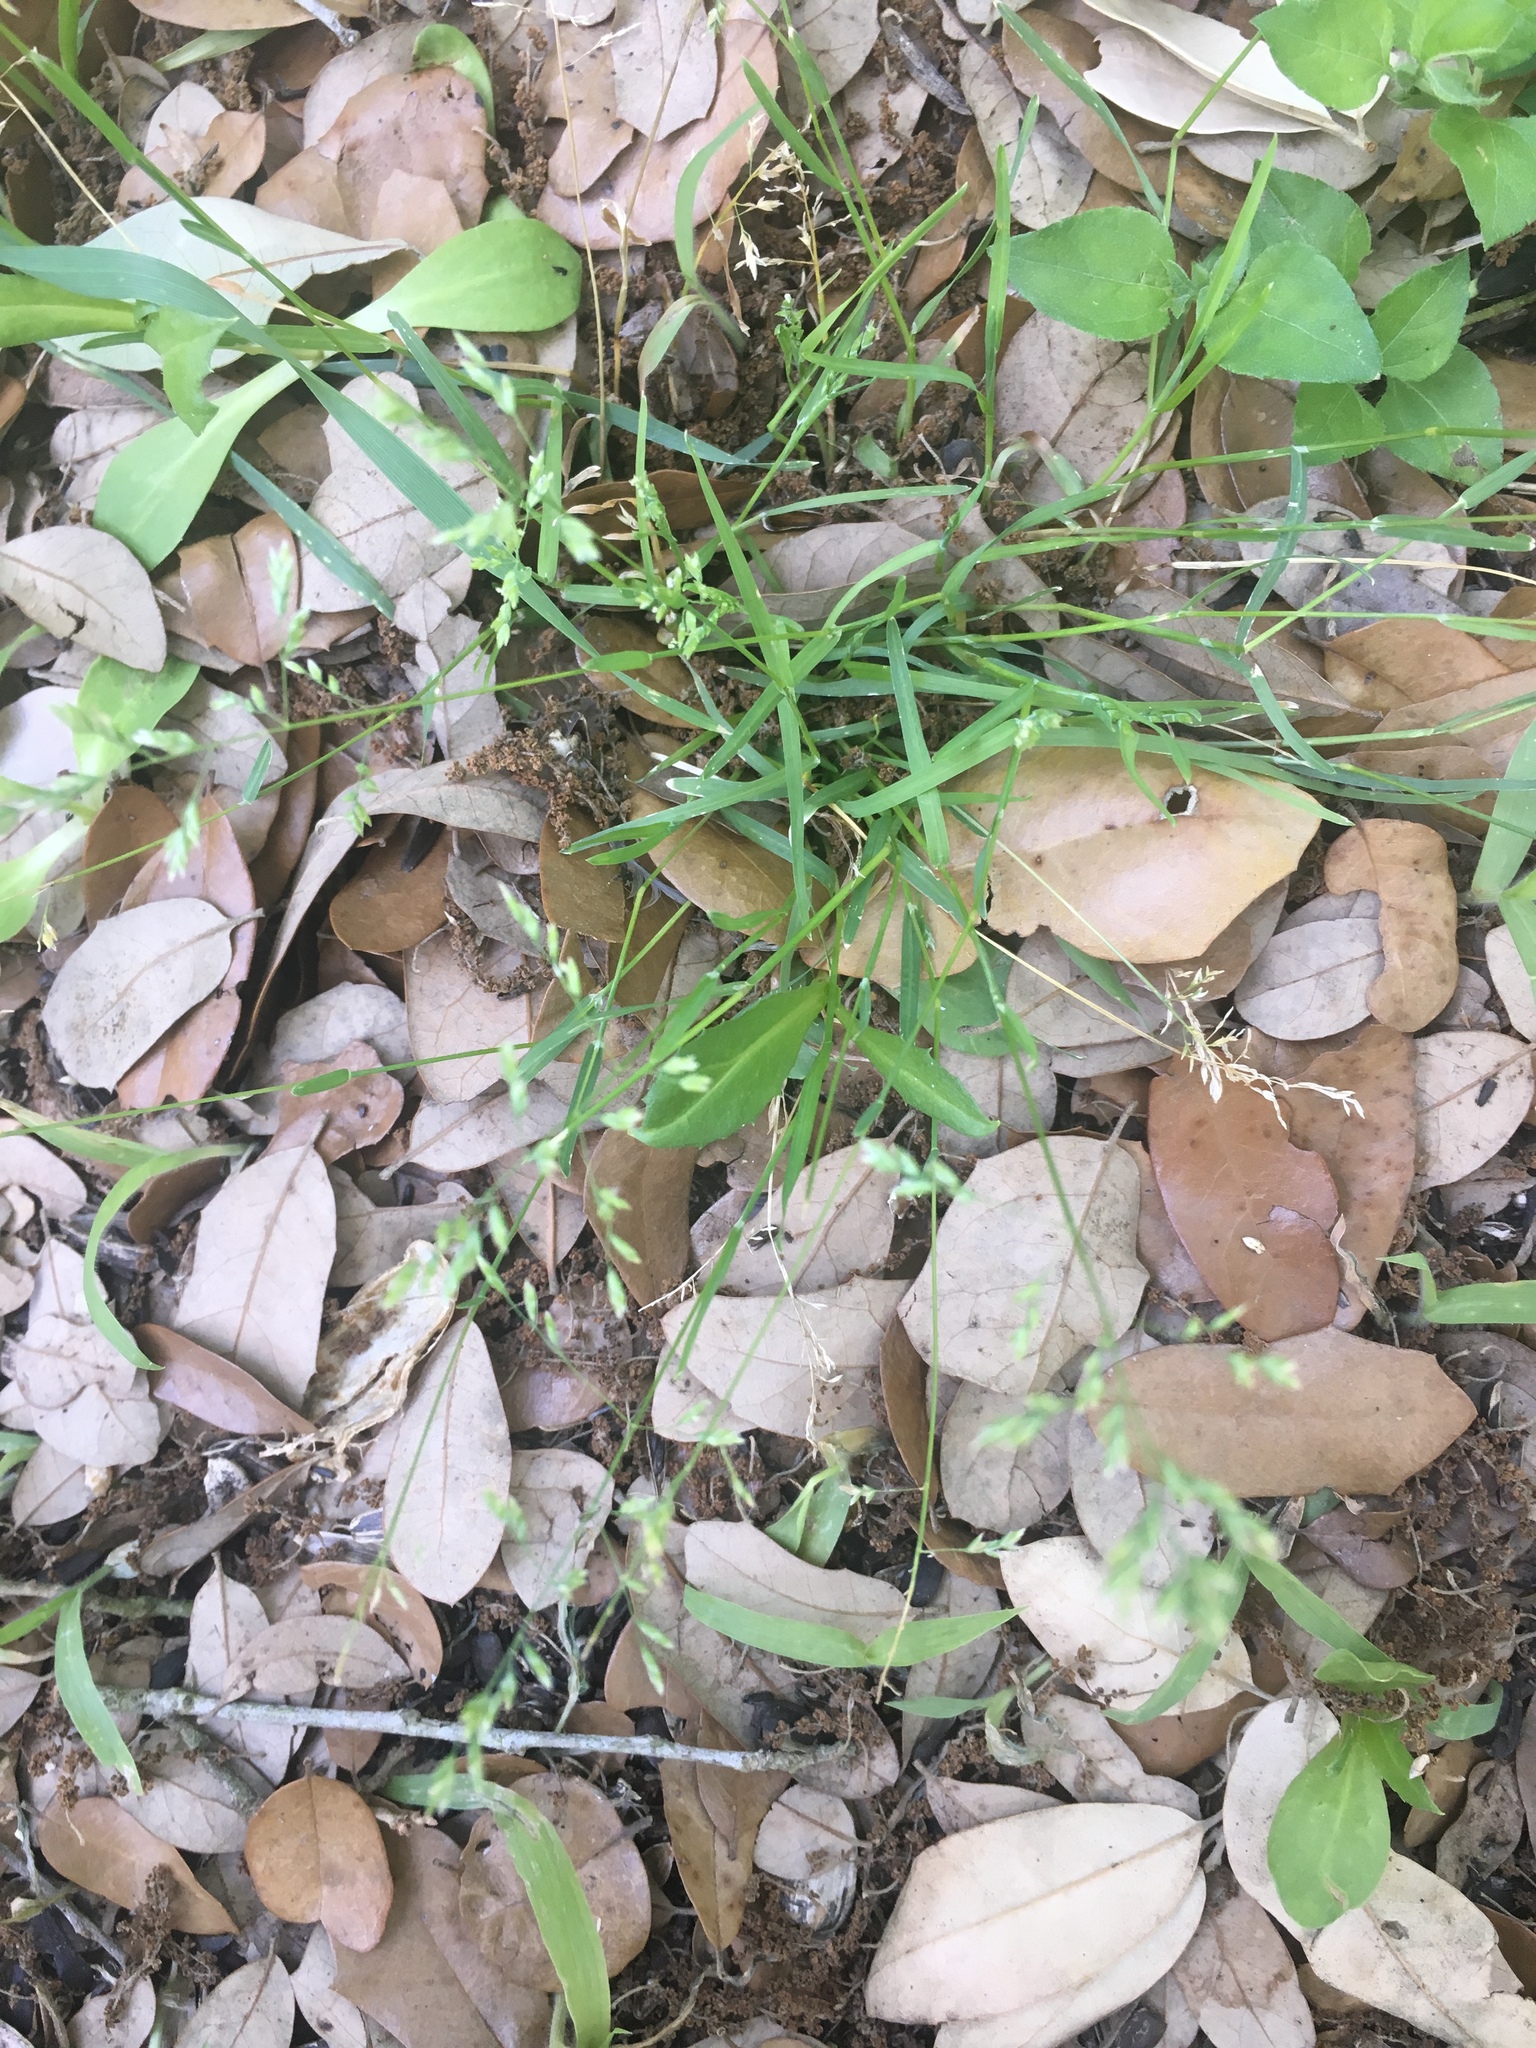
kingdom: Plantae
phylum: Tracheophyta
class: Liliopsida
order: Poales
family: Poaceae
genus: Poa
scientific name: Poa annua
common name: Annual bluegrass
